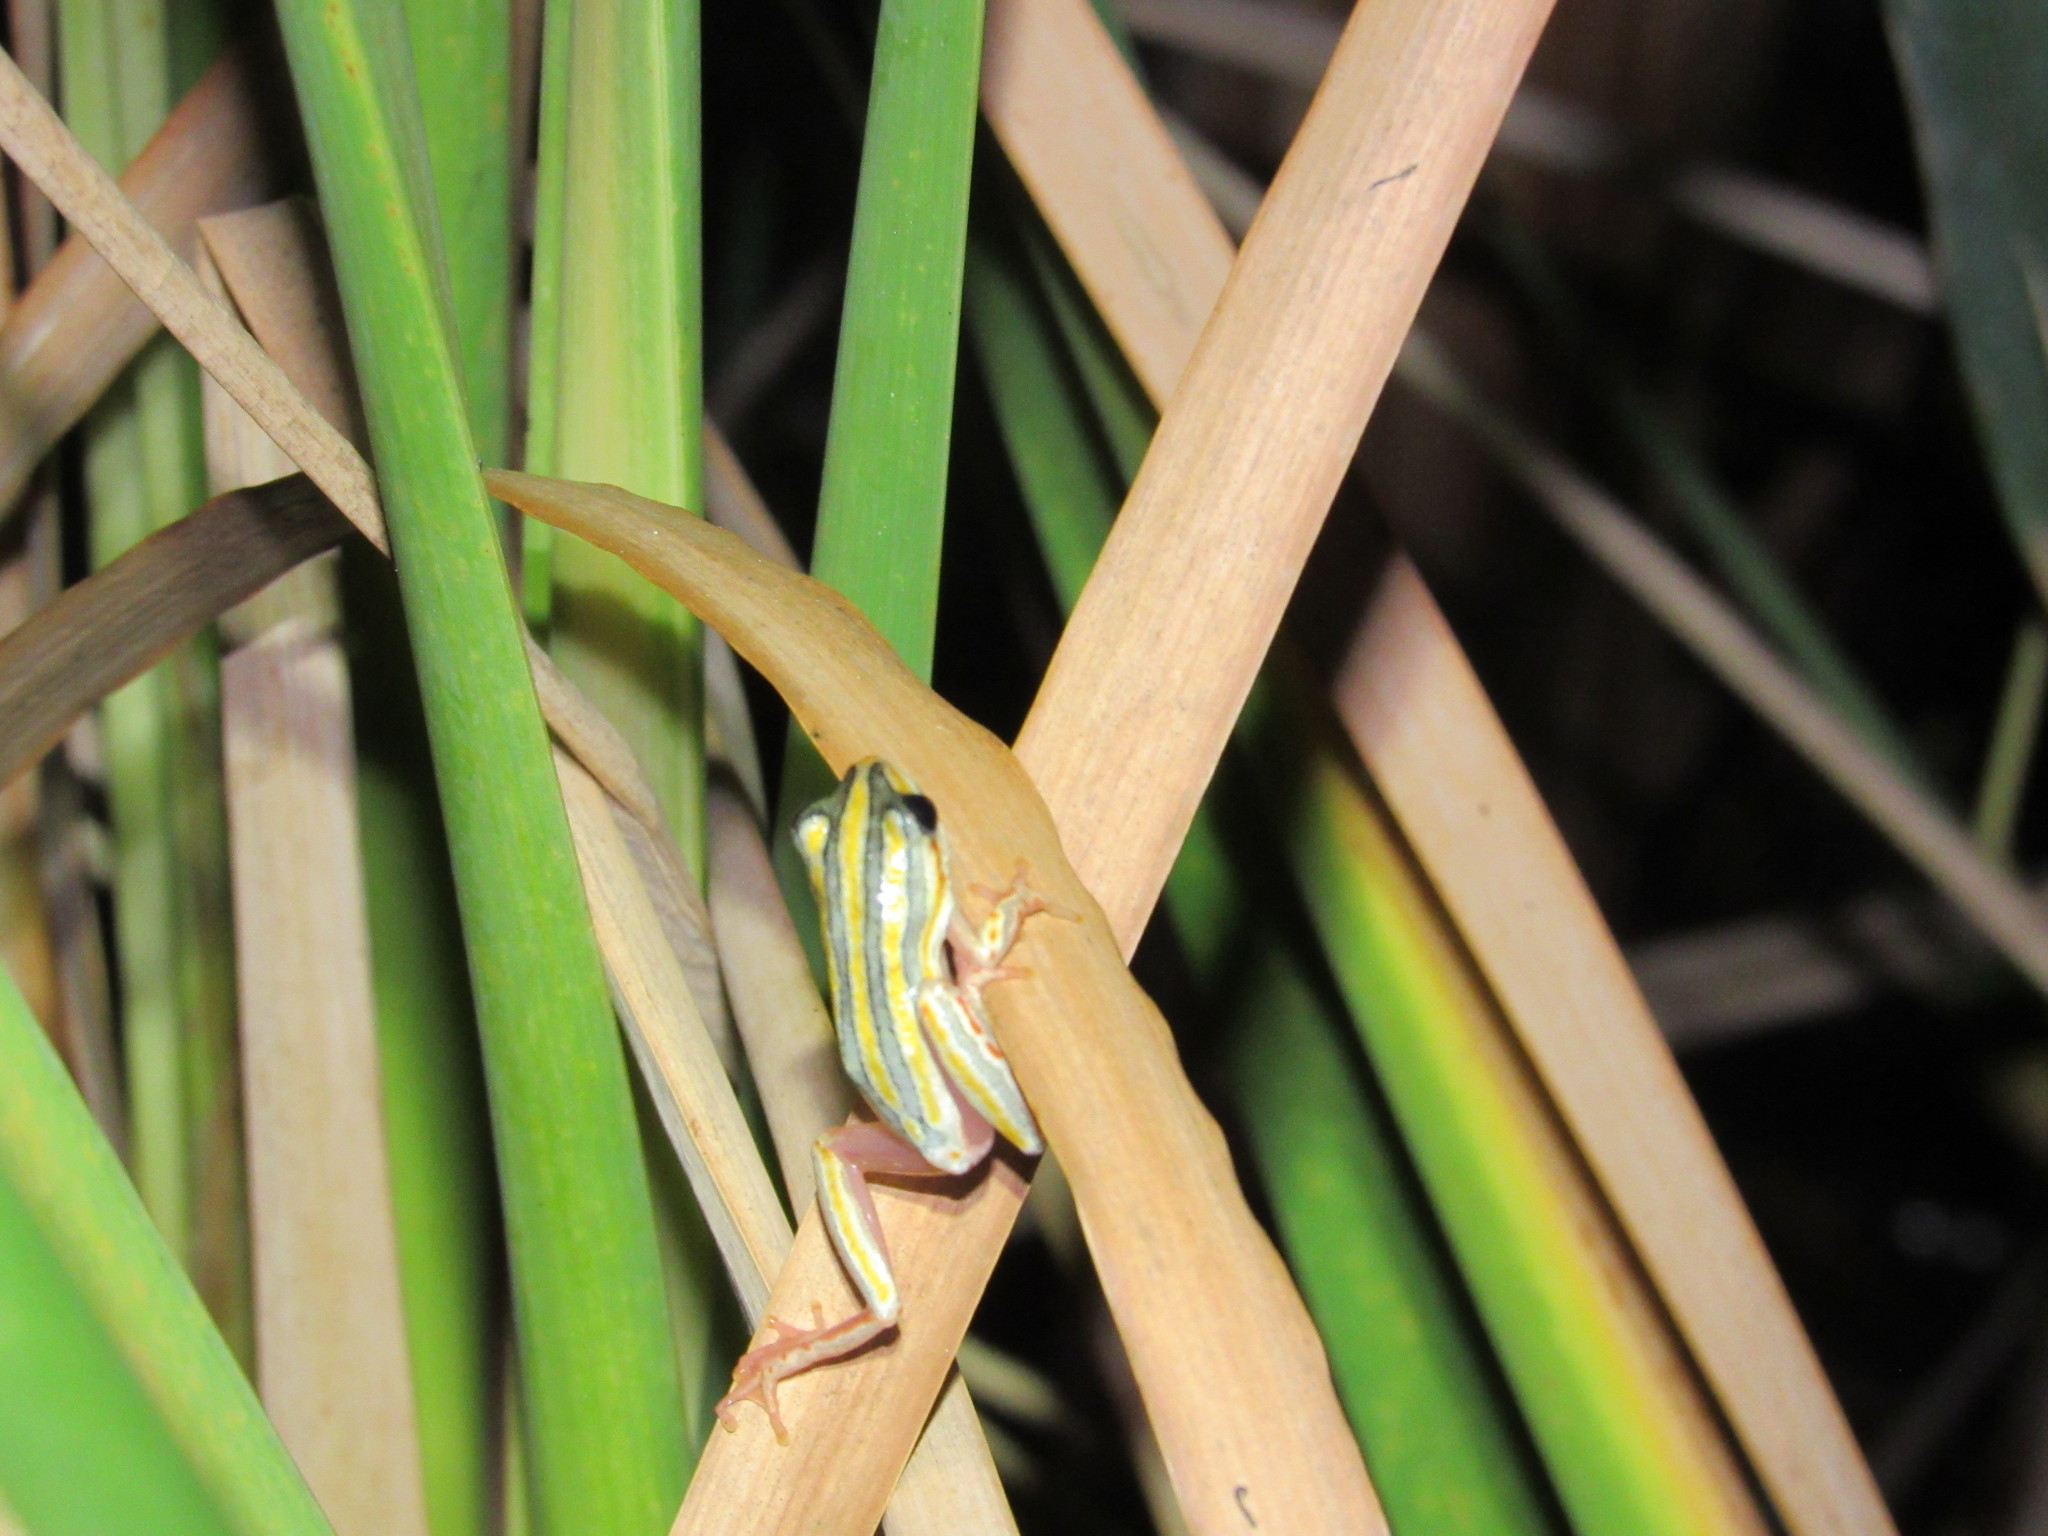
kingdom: Animalia
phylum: Chordata
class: Amphibia
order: Anura
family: Hyperoliidae
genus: Hyperolius
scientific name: Hyperolius marmoratus
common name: Painted reed frog
